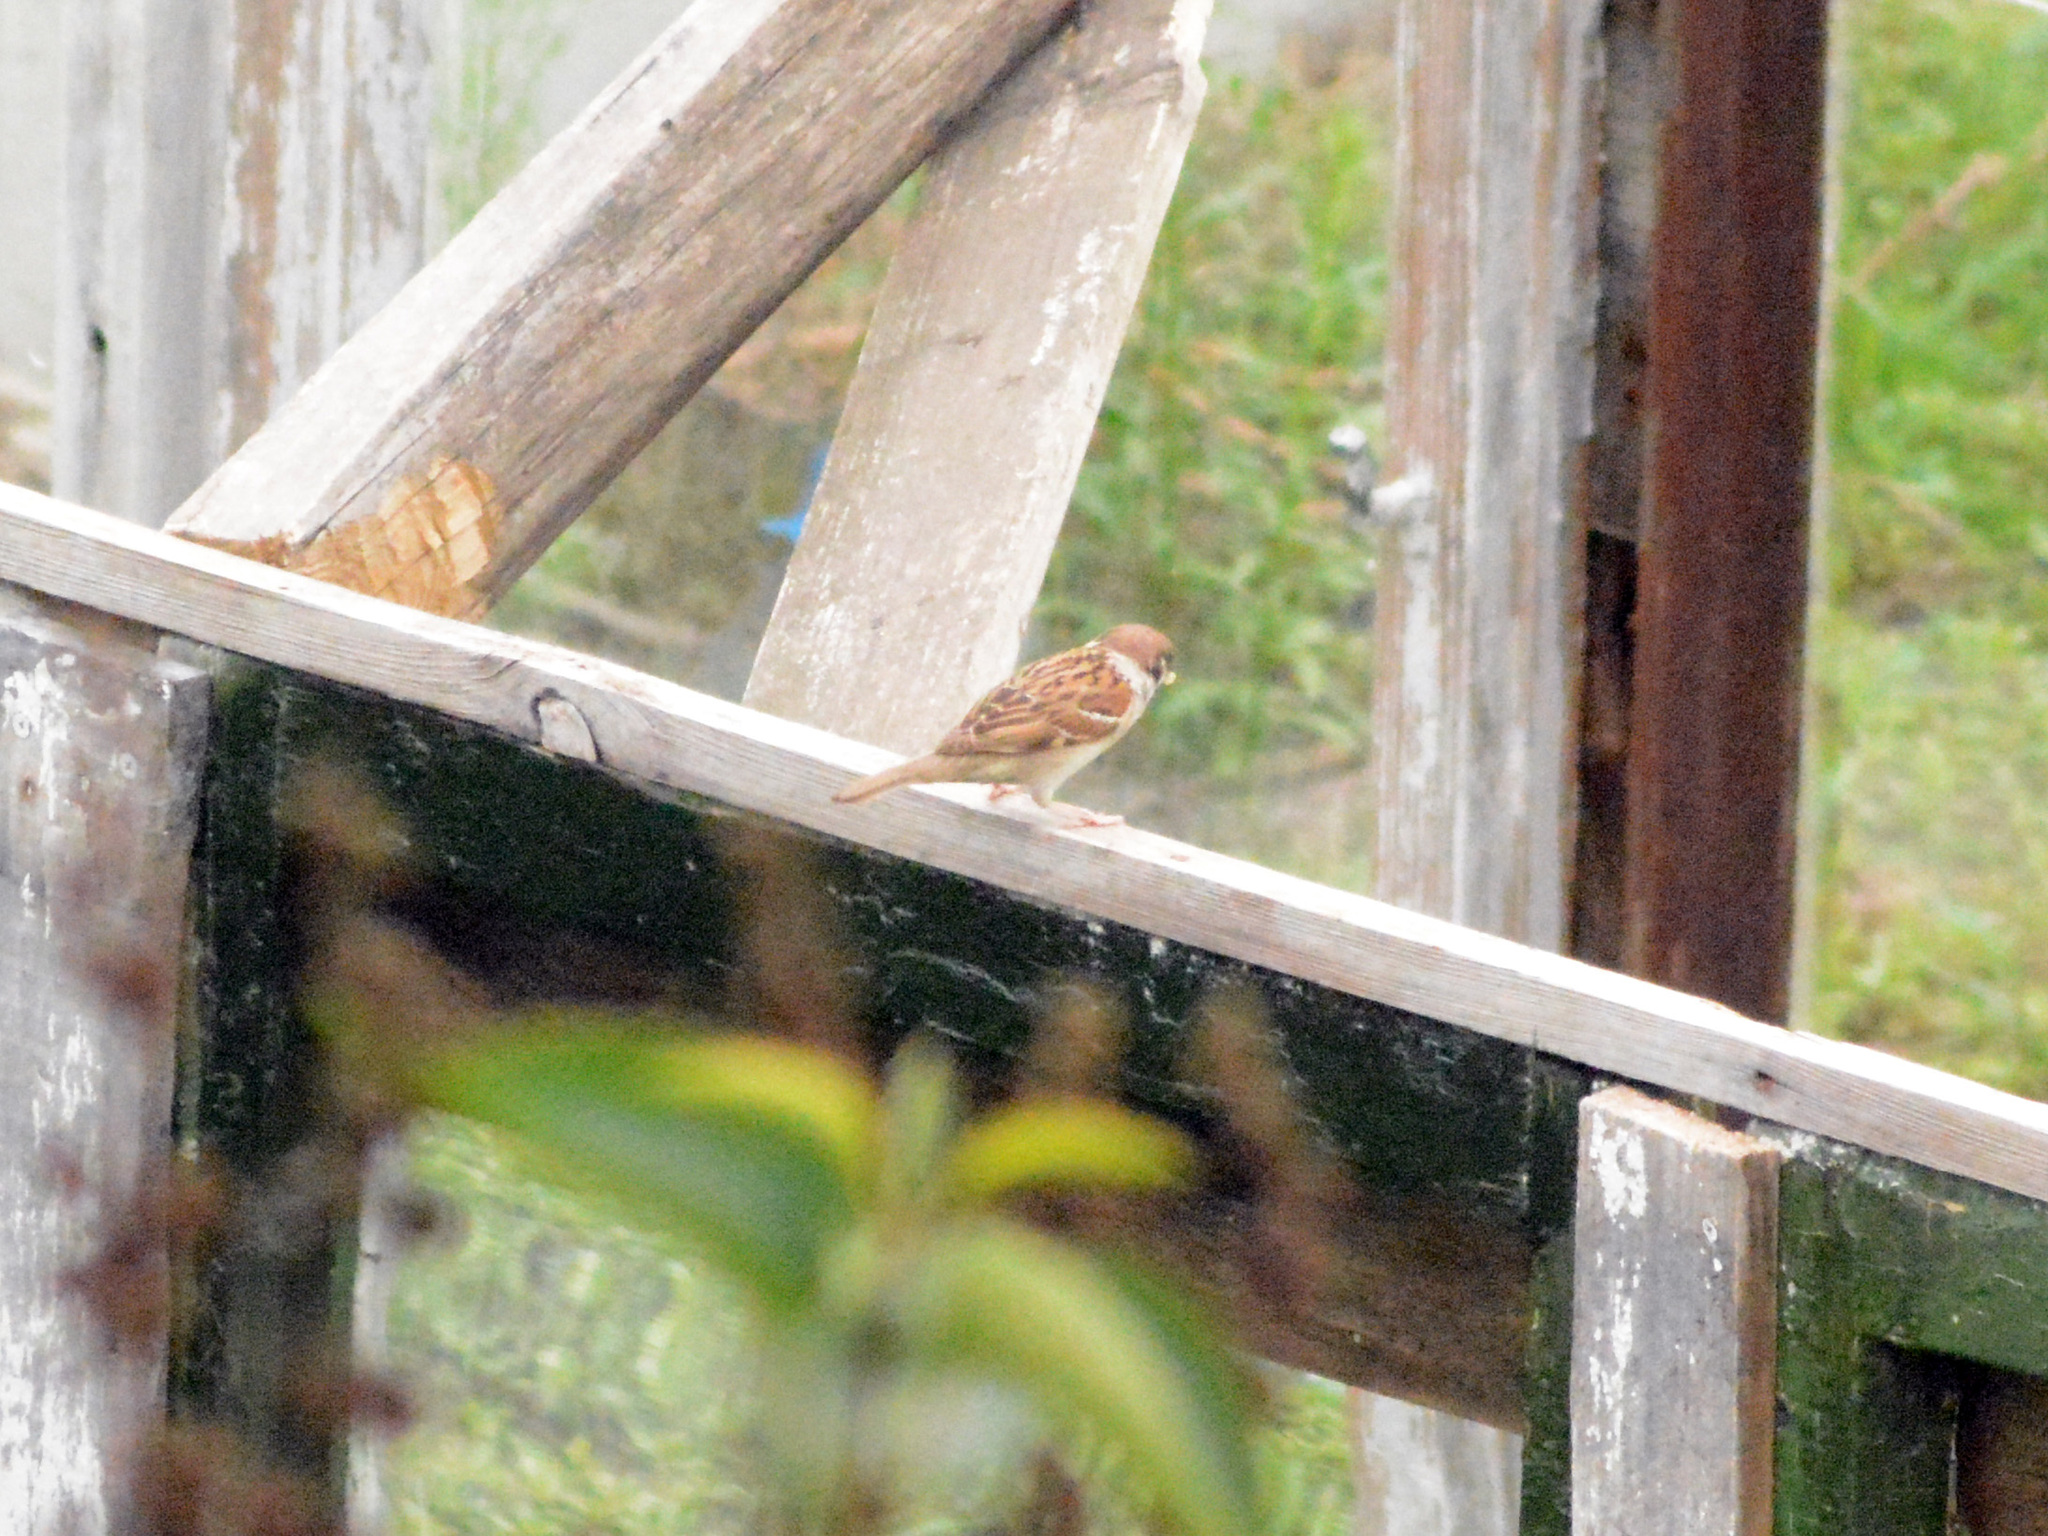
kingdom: Animalia
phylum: Chordata
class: Aves
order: Passeriformes
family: Passeridae
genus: Passer
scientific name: Passer montanus
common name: Eurasian tree sparrow
